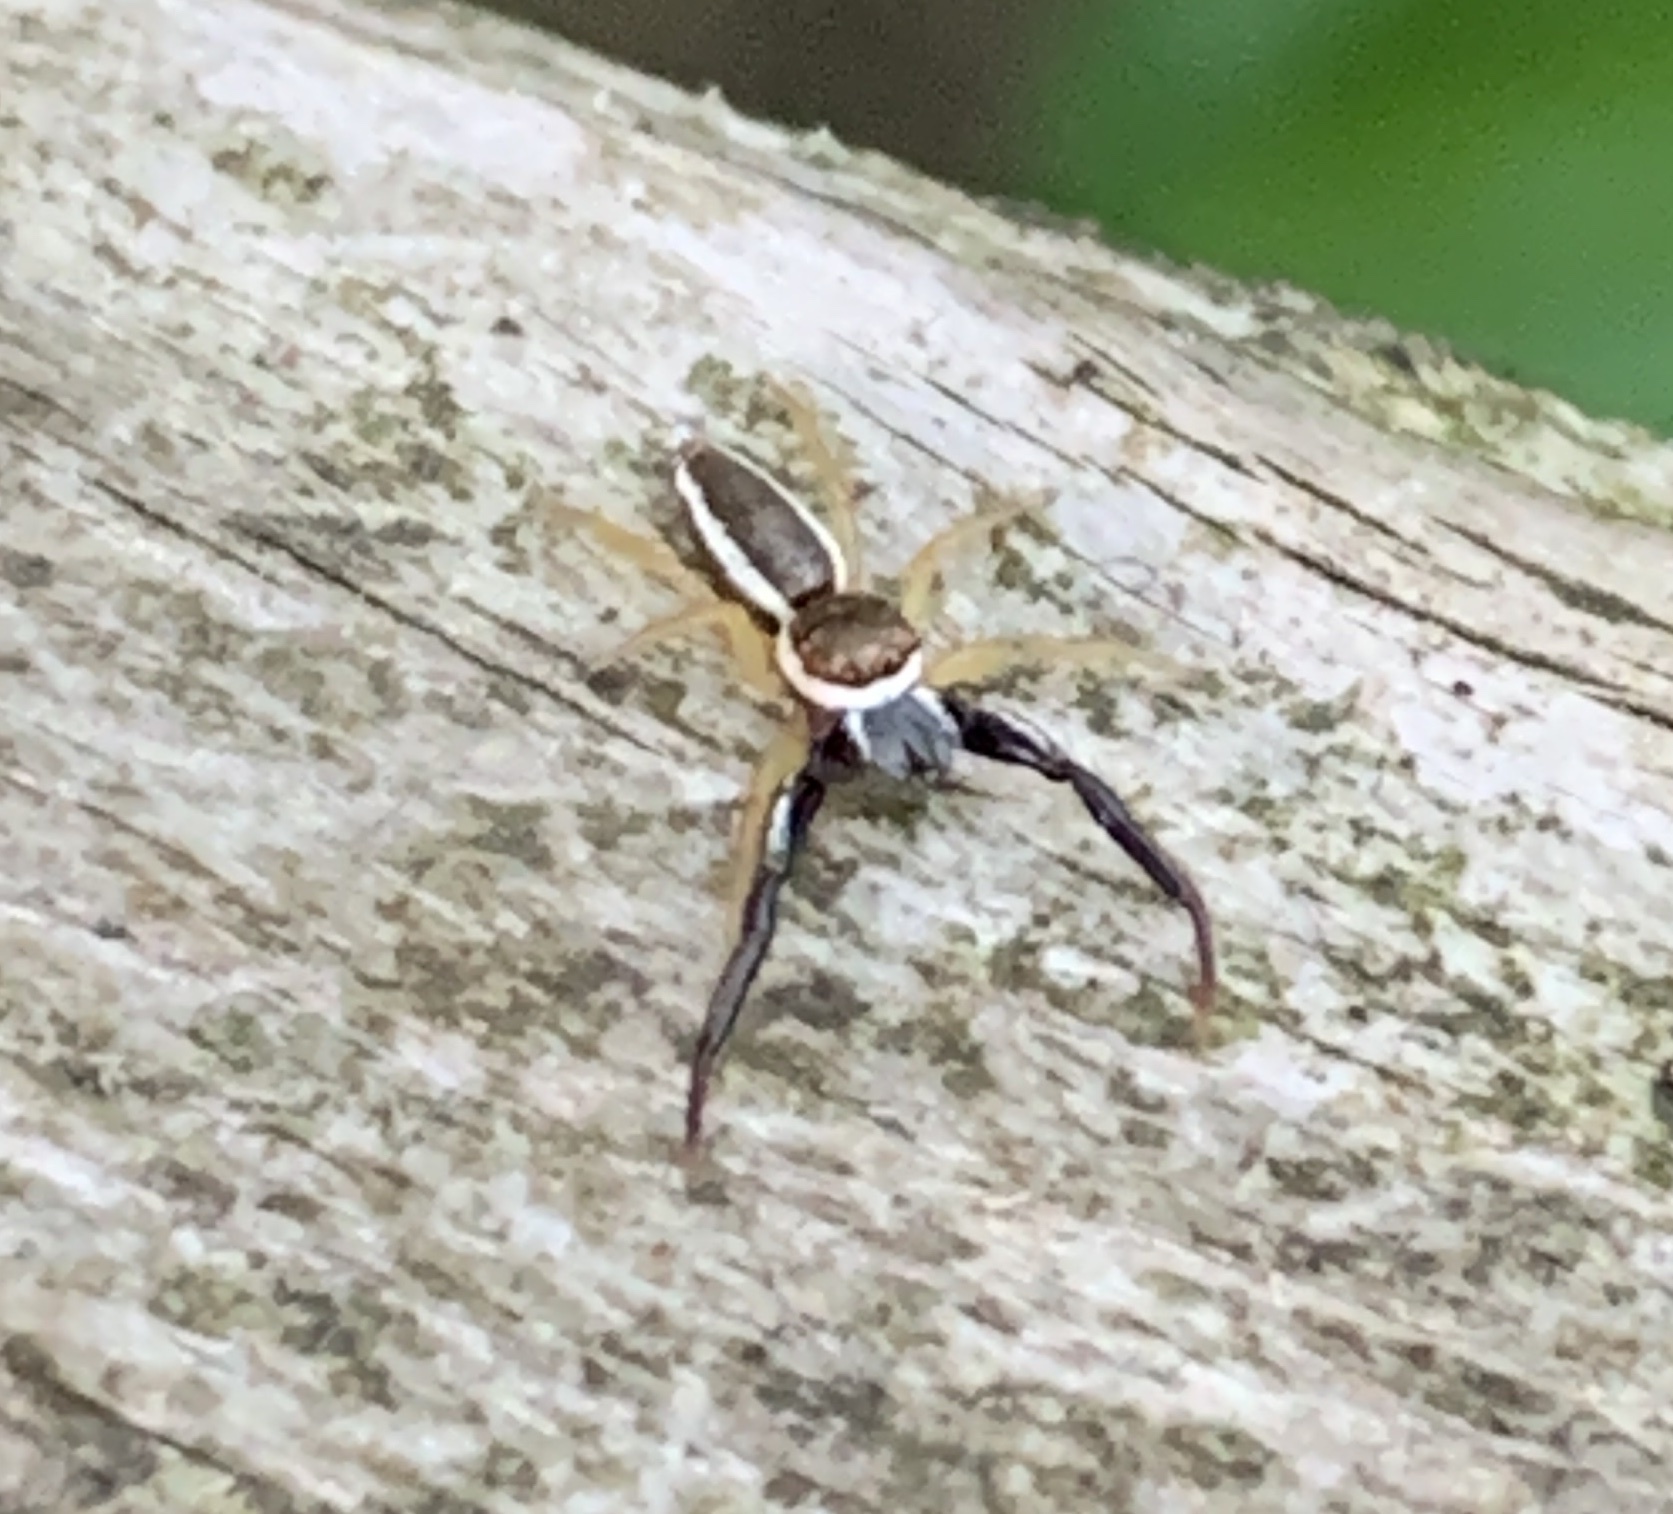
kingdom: Animalia
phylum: Arthropoda
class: Arachnida
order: Araneae
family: Salticidae
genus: Hentzia
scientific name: Hentzia palmarum
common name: Common hentz jumping spider
